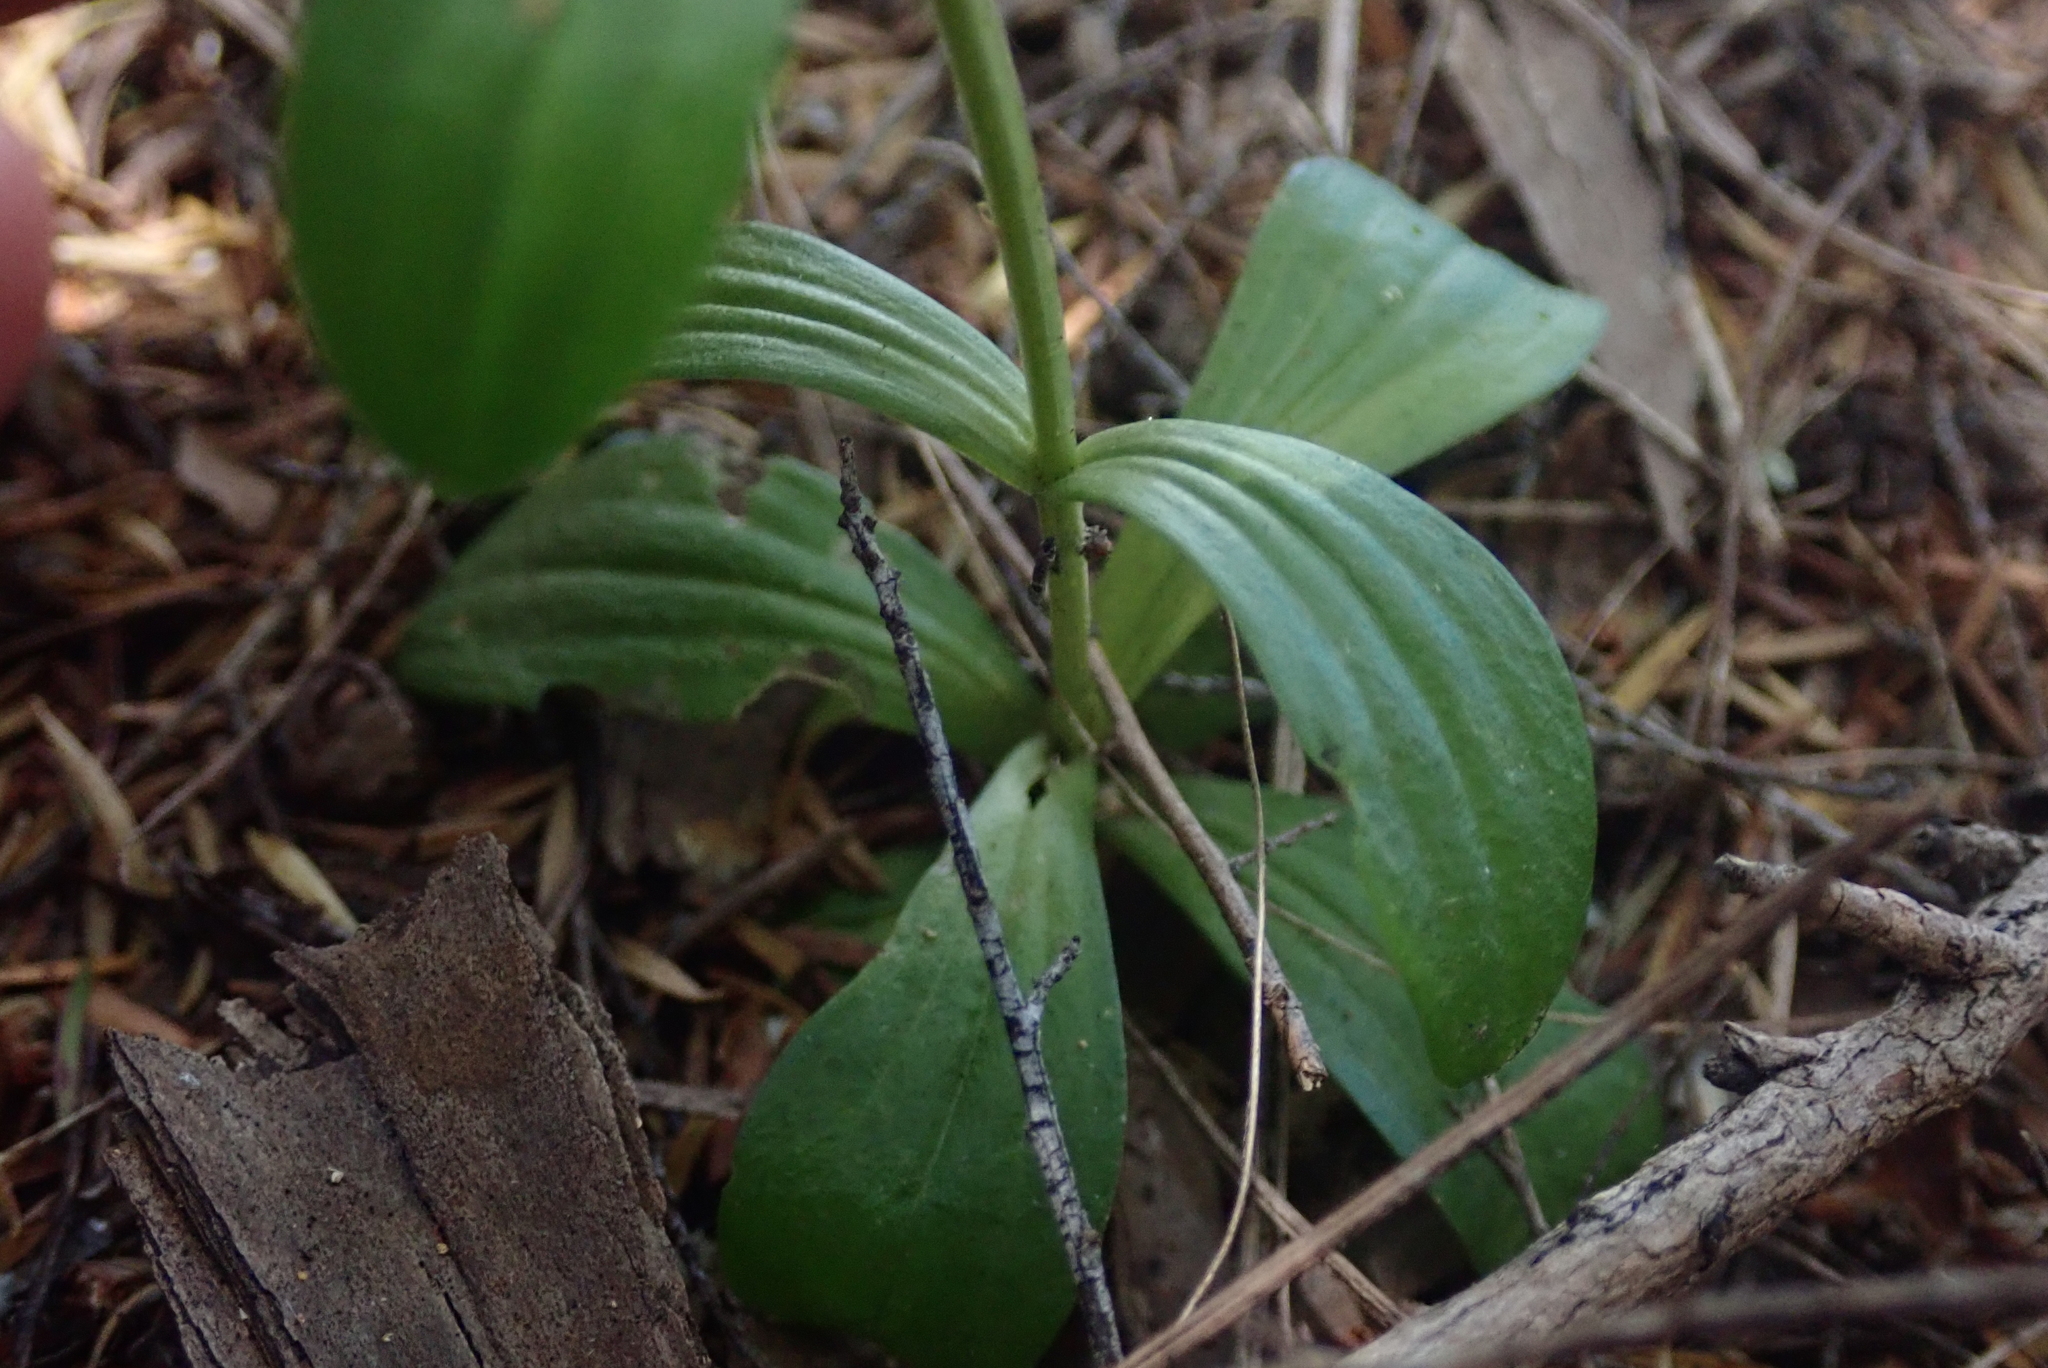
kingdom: Plantae
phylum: Tracheophyta
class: Magnoliopsida
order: Gentianales
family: Gentianaceae
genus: Centaurium
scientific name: Centaurium erythraea
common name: Common centaury
